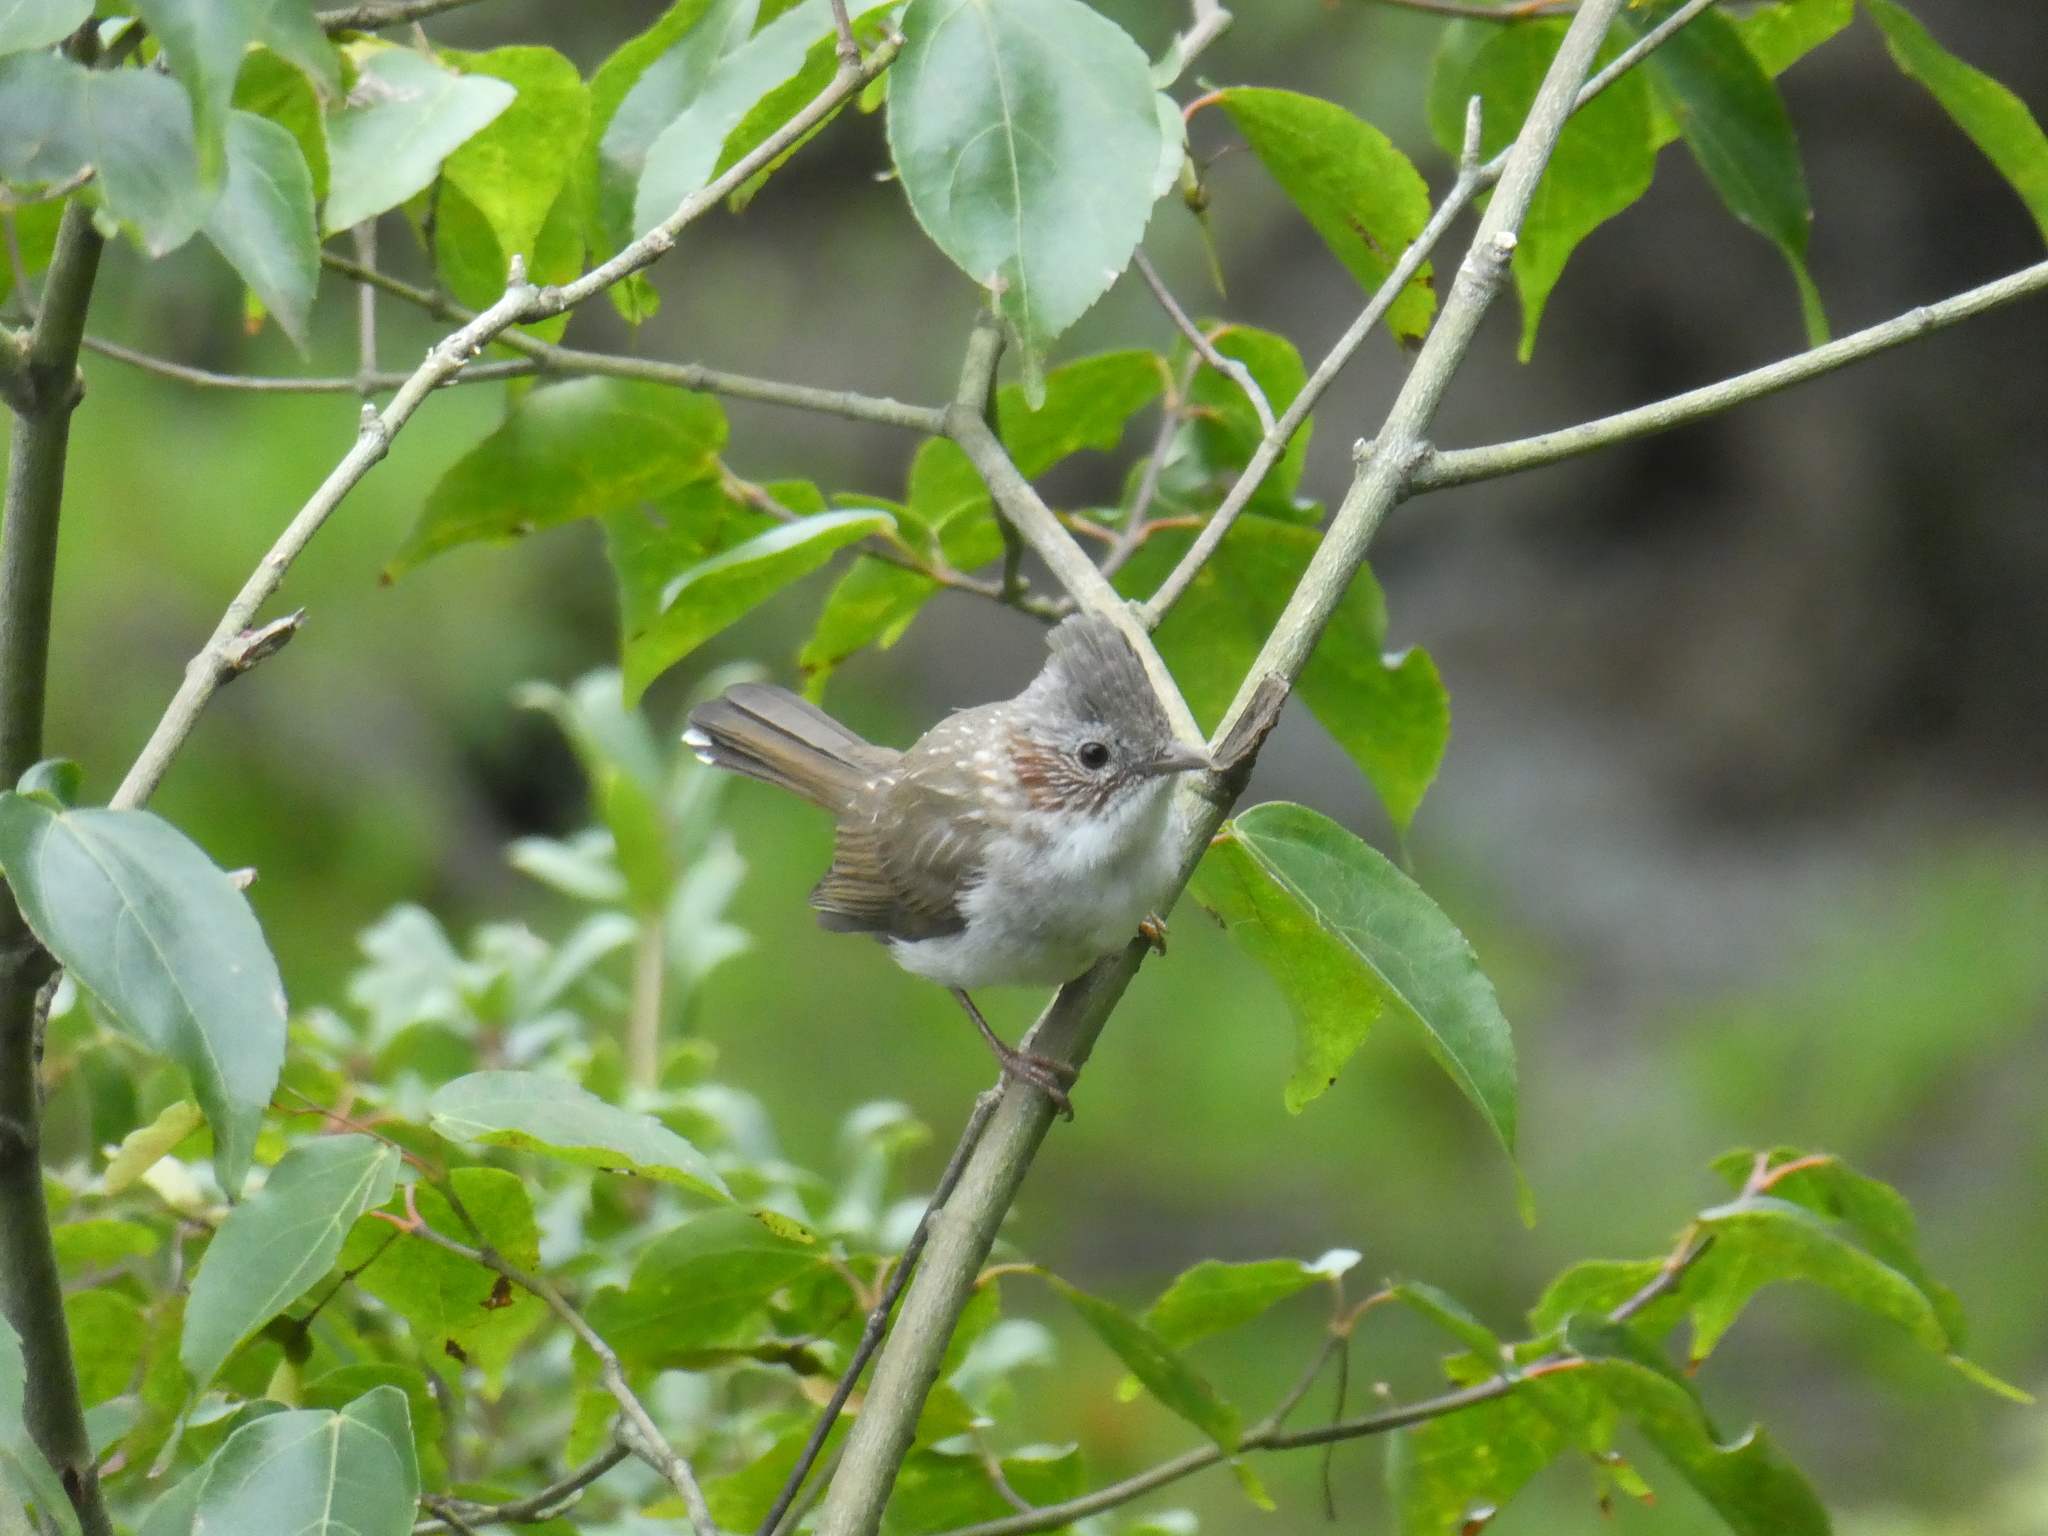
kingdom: Animalia
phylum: Chordata
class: Aves
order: Passeriformes
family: Zosteropidae
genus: Yuhina
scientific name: Yuhina torqueola
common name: Indochinese yuhina
